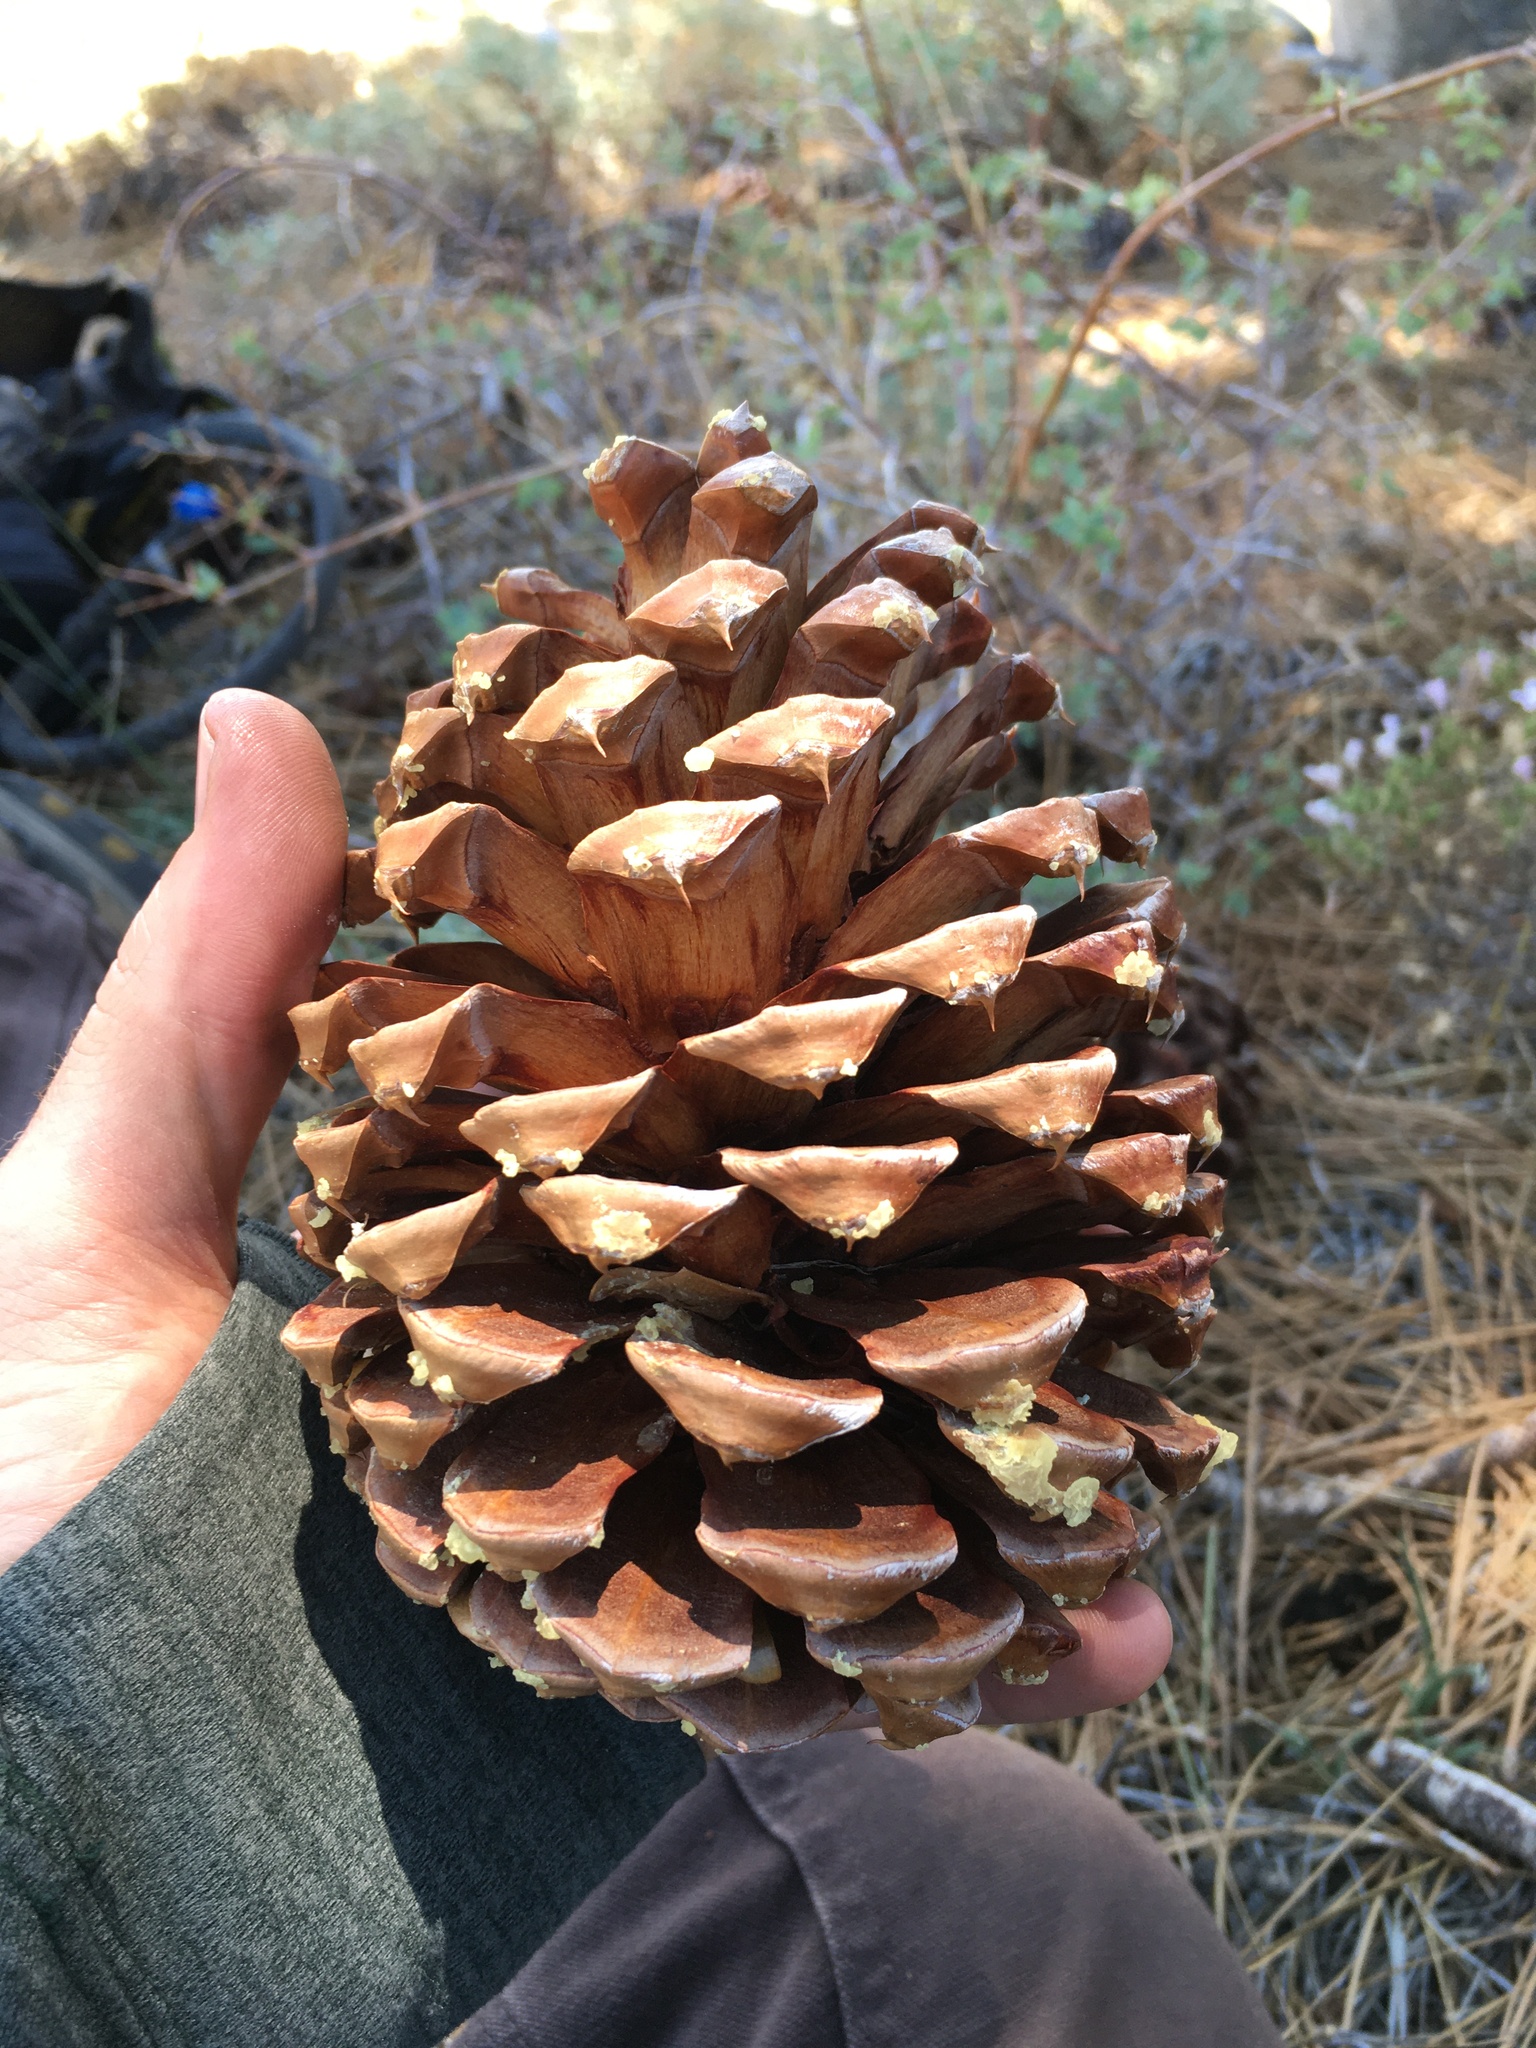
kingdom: Plantae
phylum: Tracheophyta
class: Pinopsida
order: Pinales
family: Pinaceae
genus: Pinus
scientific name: Pinus jeffreyi
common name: Jeffrey pine
